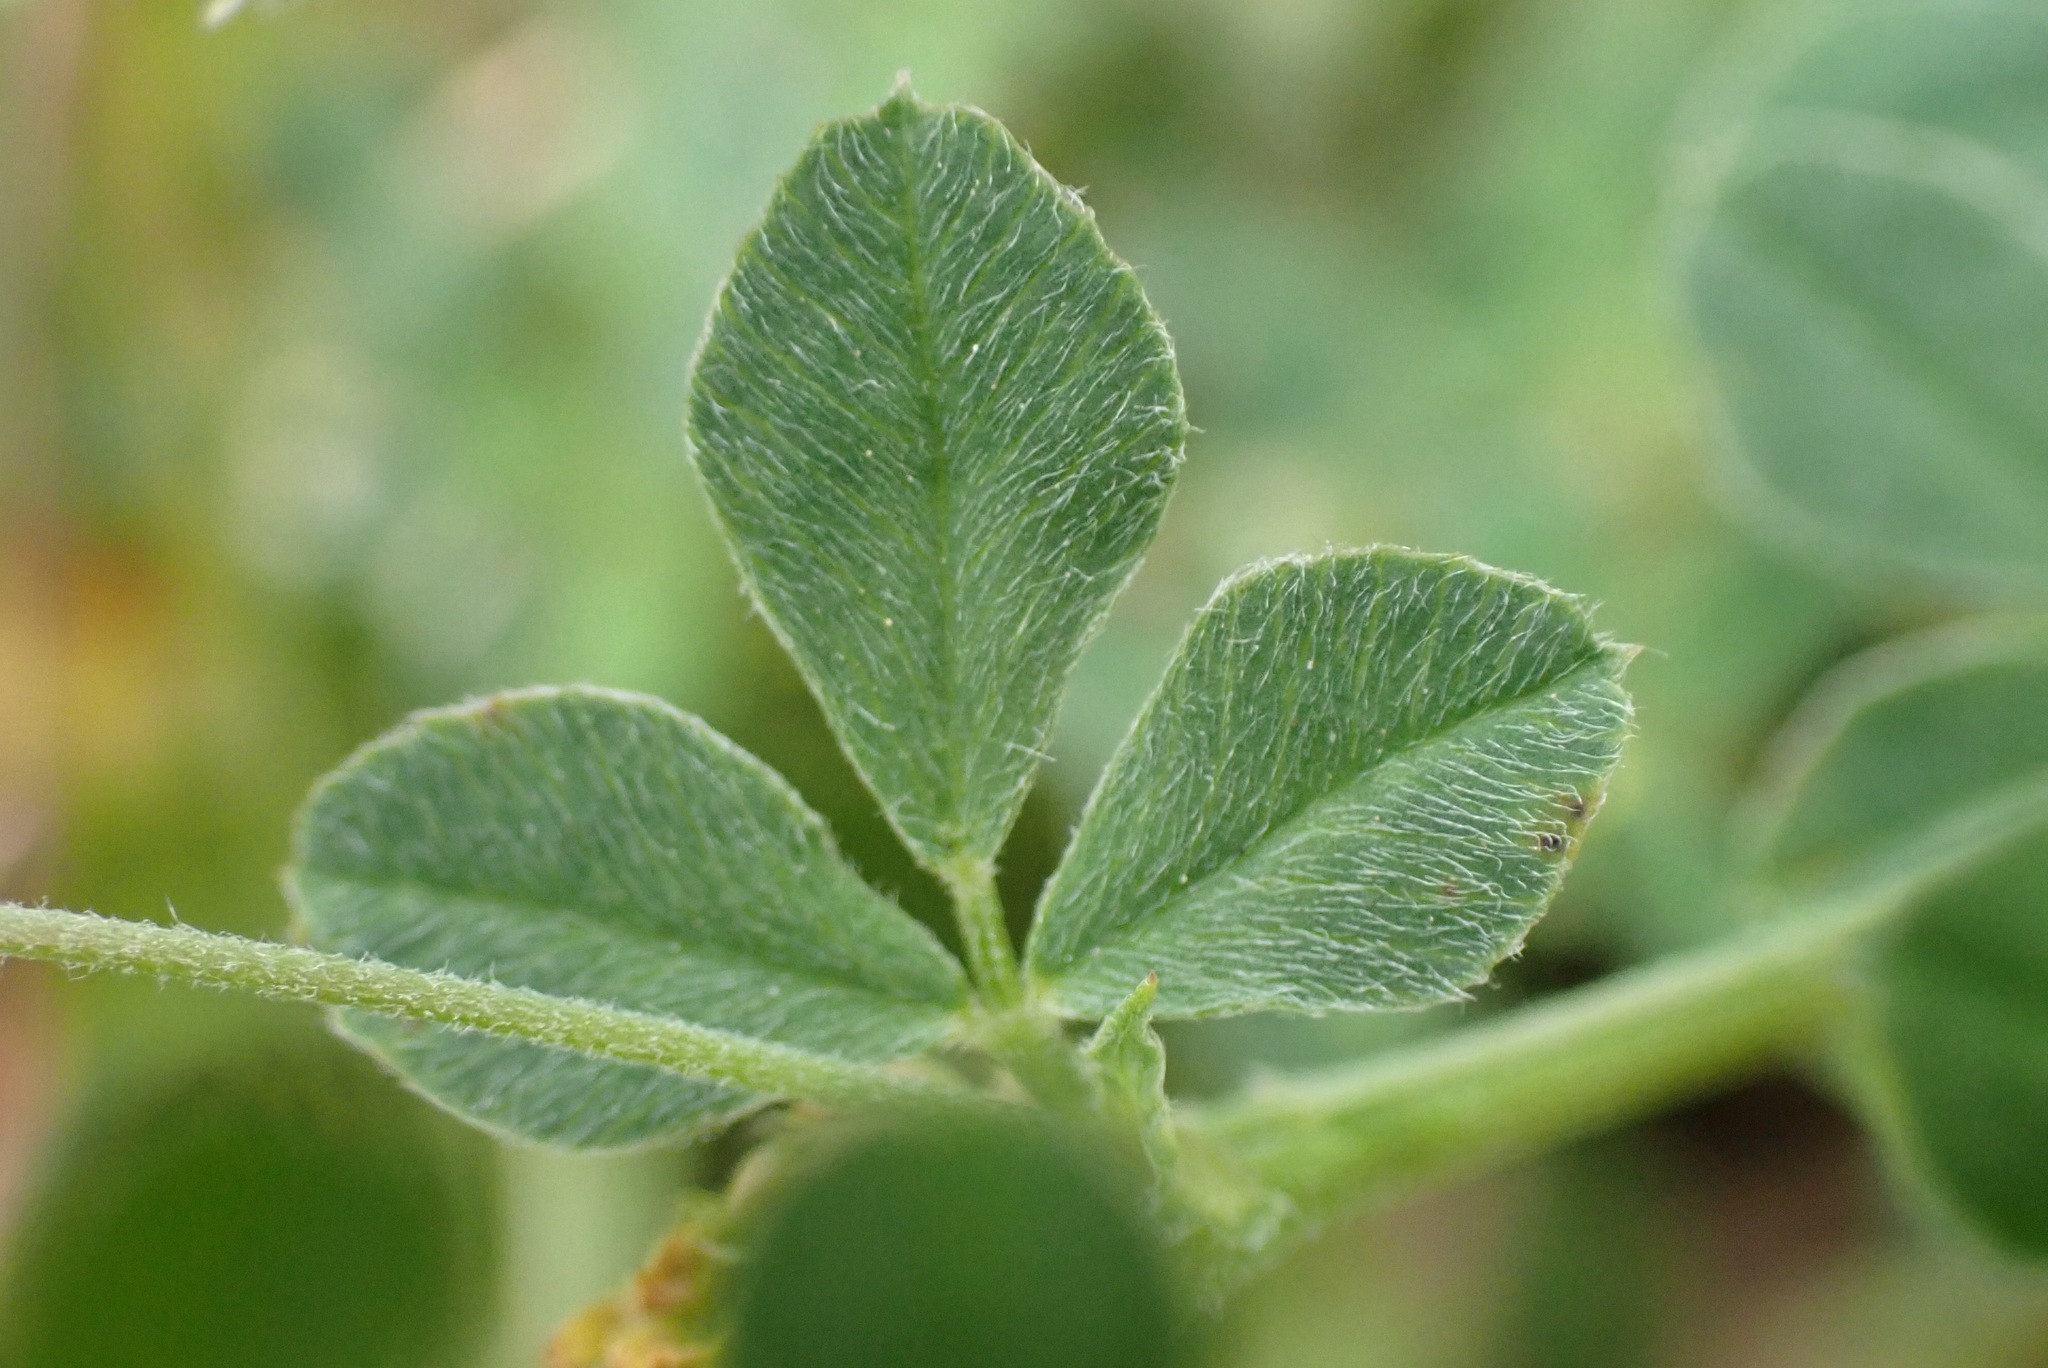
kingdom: Plantae
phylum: Tracheophyta
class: Magnoliopsida
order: Fabales
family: Fabaceae
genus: Medicago
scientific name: Medicago lupulina
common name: Black medick
